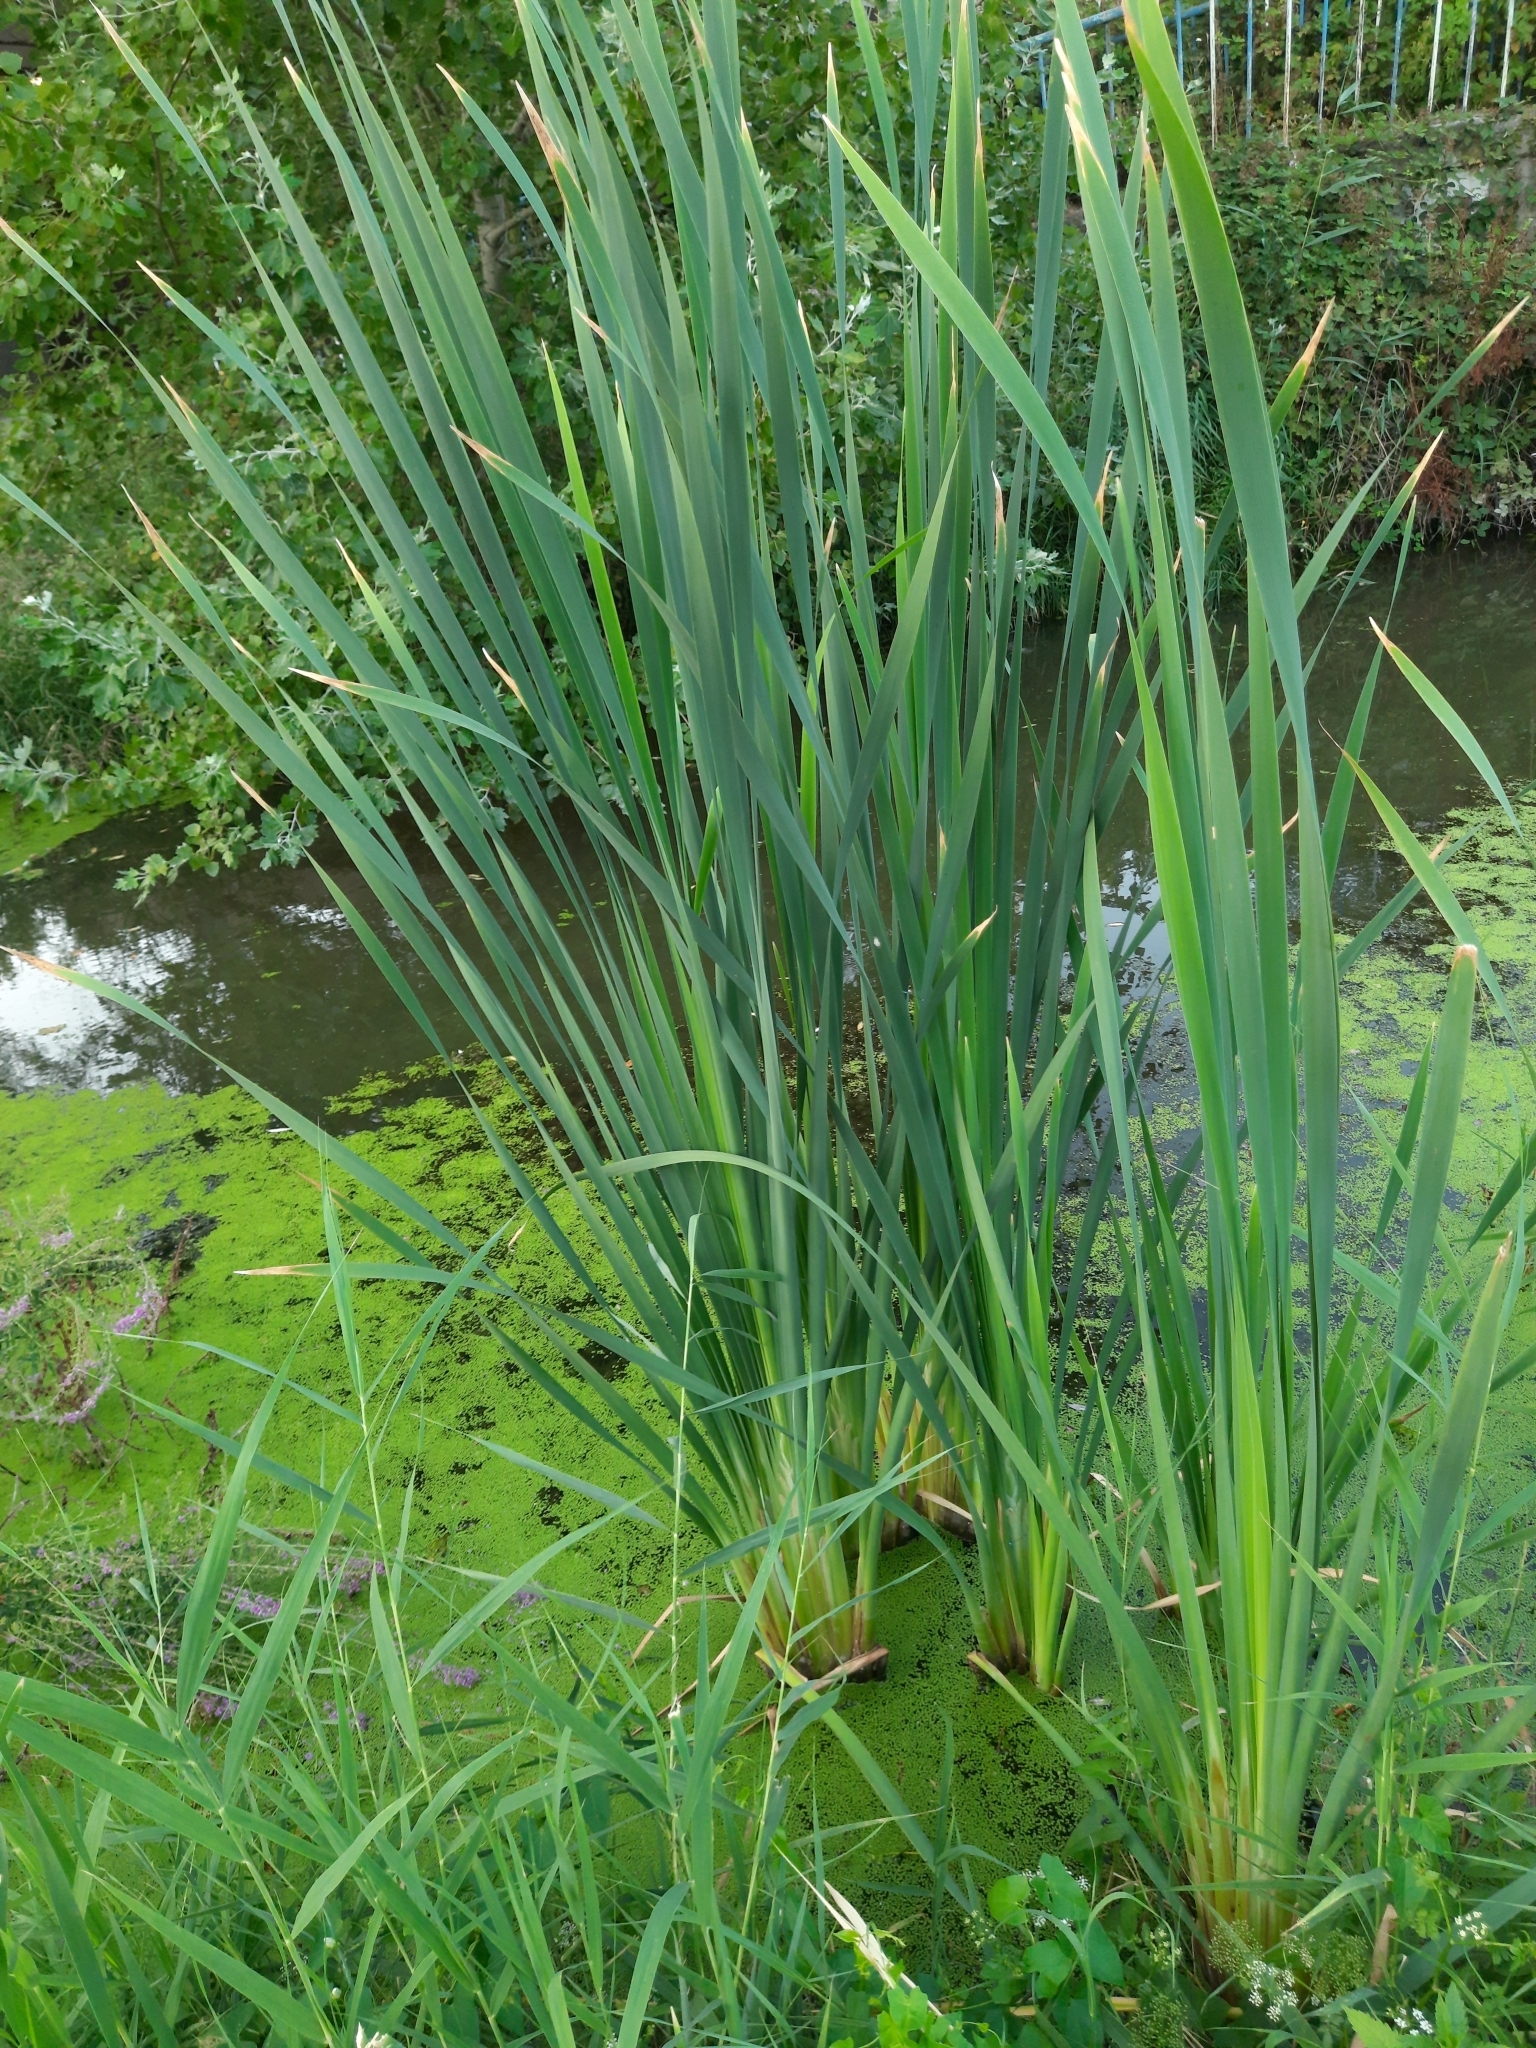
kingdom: Plantae
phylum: Tracheophyta
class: Liliopsida
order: Poales
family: Typhaceae
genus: Typha
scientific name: Typha latifolia
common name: Broadleaf cattail
